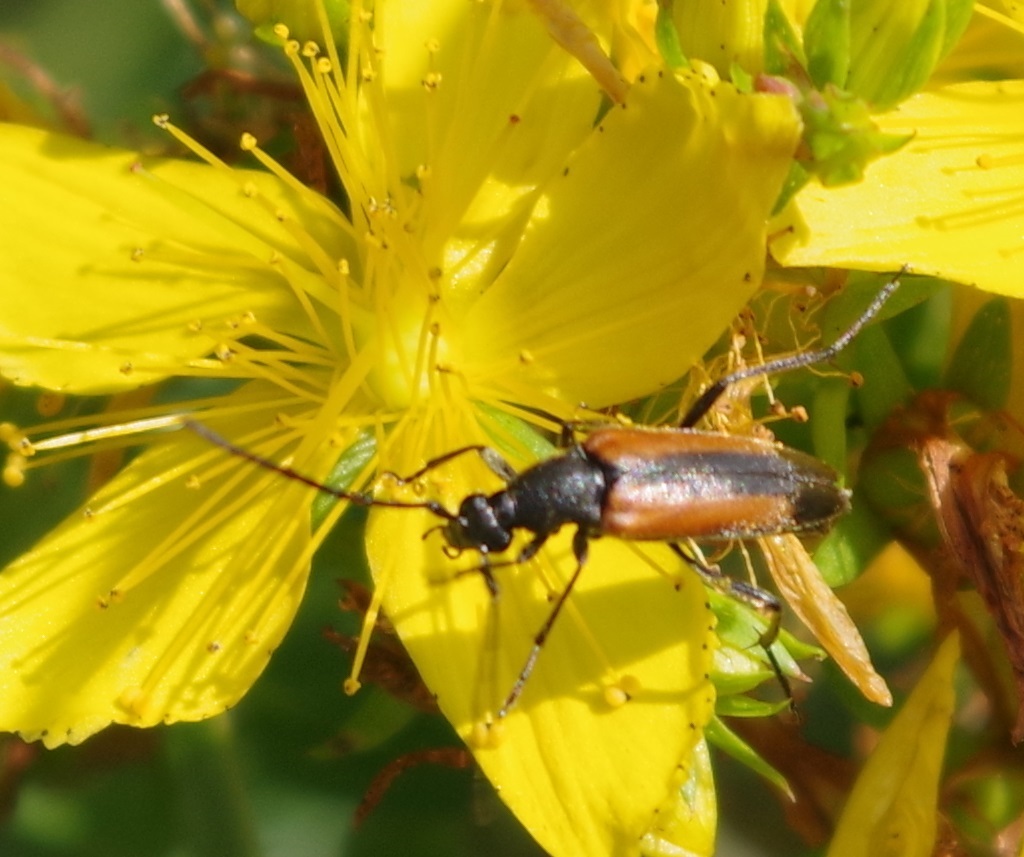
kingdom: Animalia
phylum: Arthropoda
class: Insecta
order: Coleoptera
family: Cerambycidae
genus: Stenurella
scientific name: Stenurella melanura
